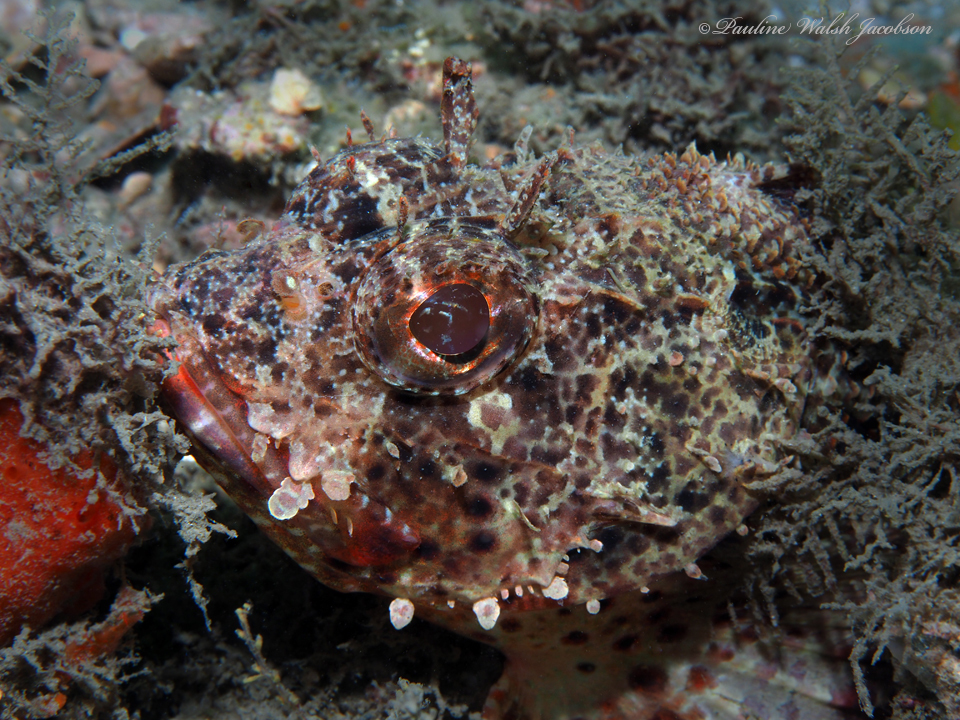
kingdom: Animalia
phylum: Chordata
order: Scorpaeniformes
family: Scorpaenidae
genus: Scorpaena
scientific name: Scorpaena brasiliensis
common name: Barbfish
